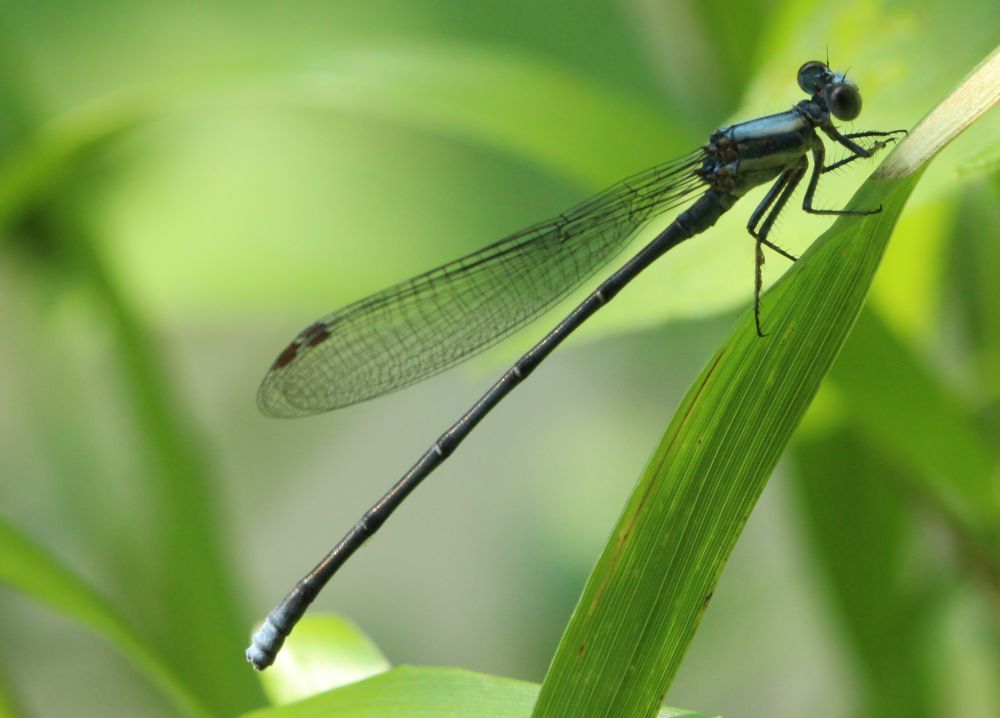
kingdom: Animalia
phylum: Arthropoda
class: Insecta
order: Odonata
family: Coenagrionidae
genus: Argia
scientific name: Argia moesta
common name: Powdered dancer
